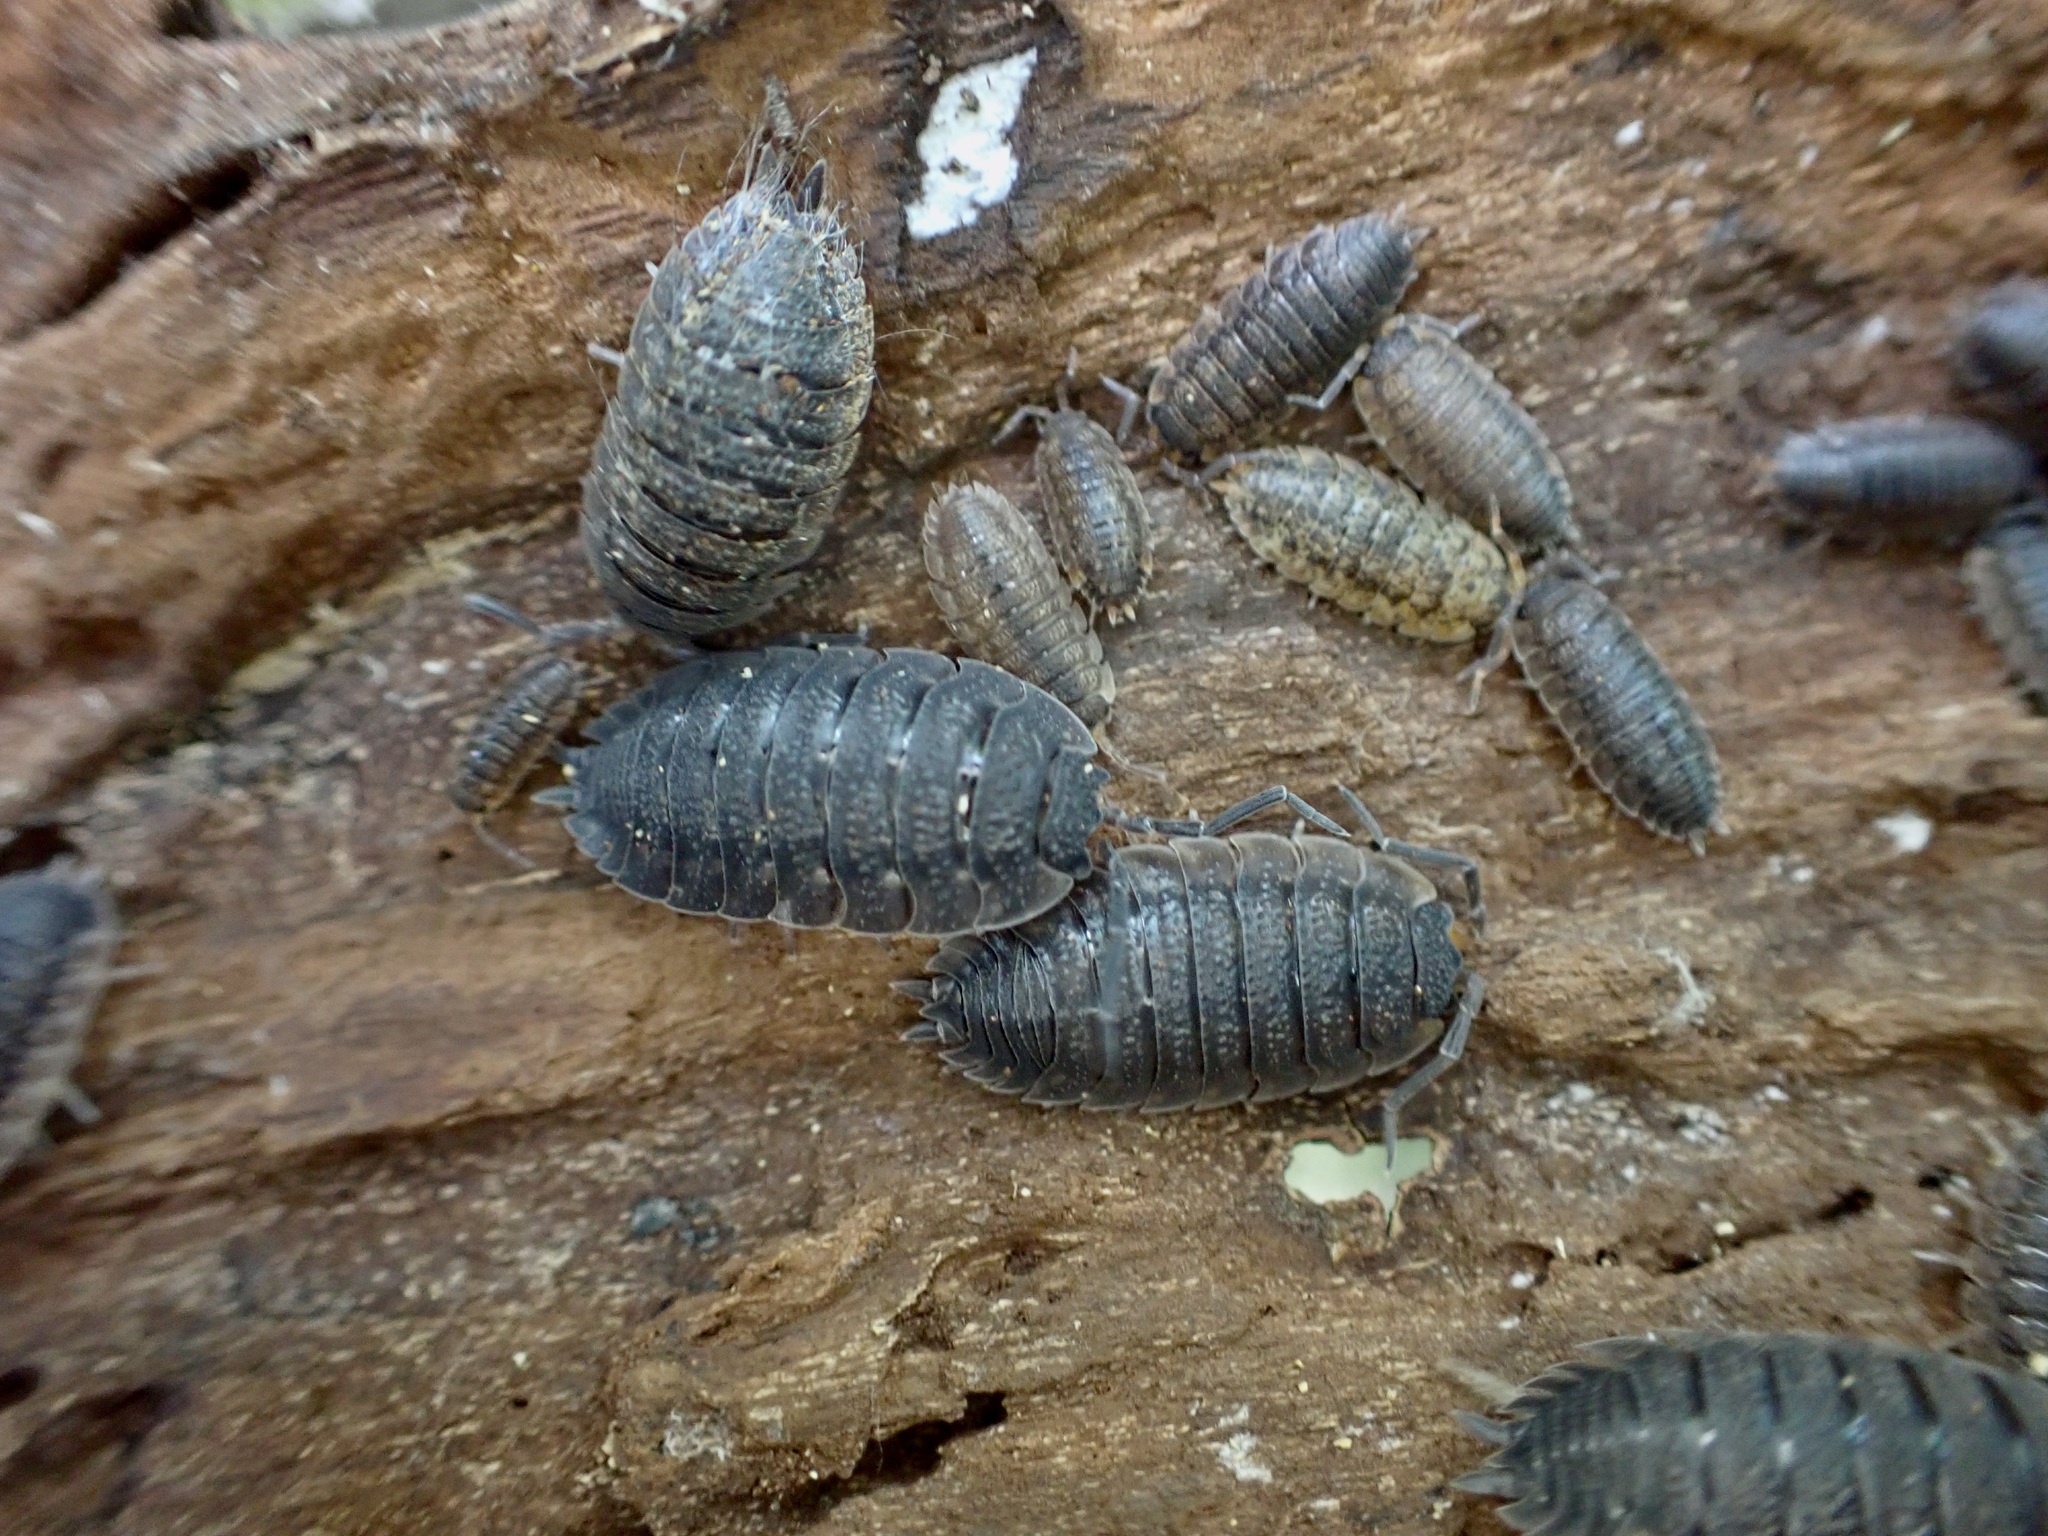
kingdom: Animalia
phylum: Arthropoda
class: Malacostraca
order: Isopoda
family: Porcellionidae
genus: Porcellio
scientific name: Porcellio scaber
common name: Common rough woodlouse
